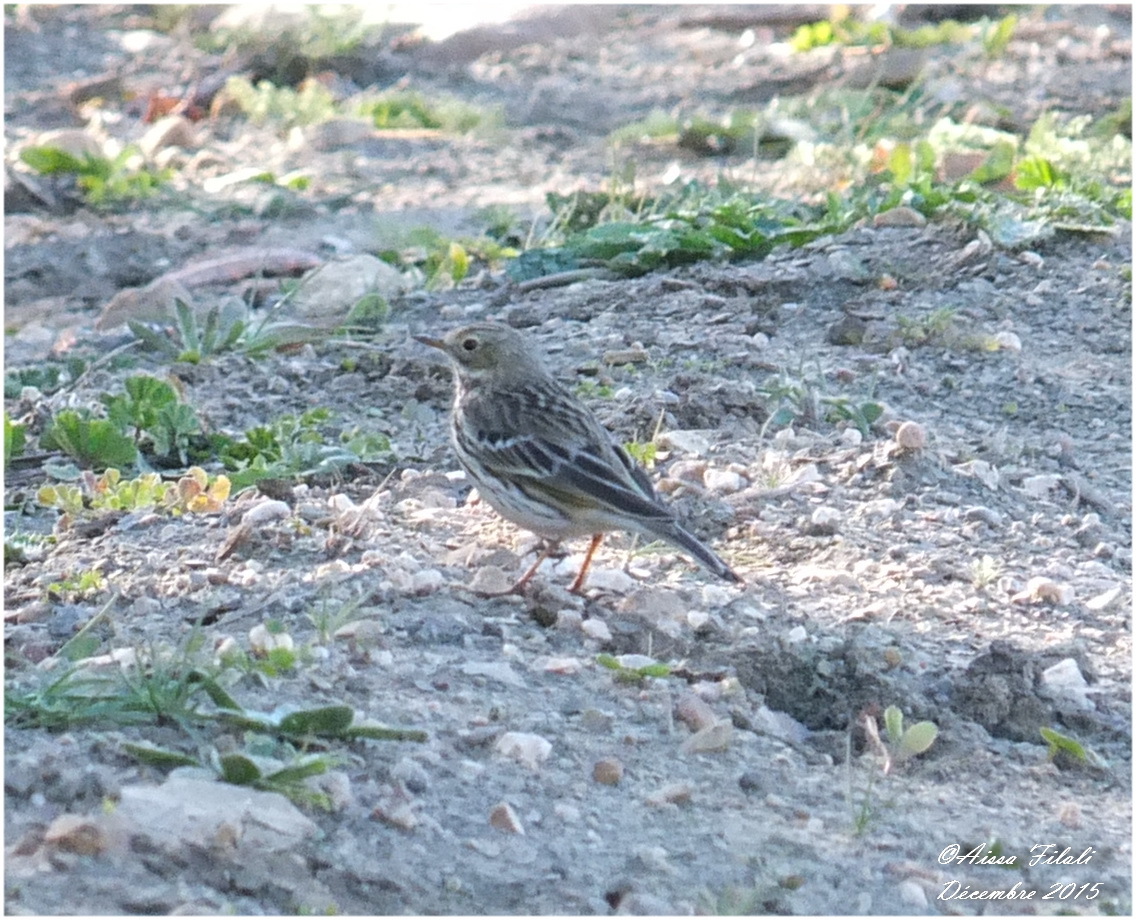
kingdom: Animalia
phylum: Chordata
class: Aves
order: Passeriformes
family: Motacillidae
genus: Anthus
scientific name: Anthus pratensis
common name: Meadow pipit
